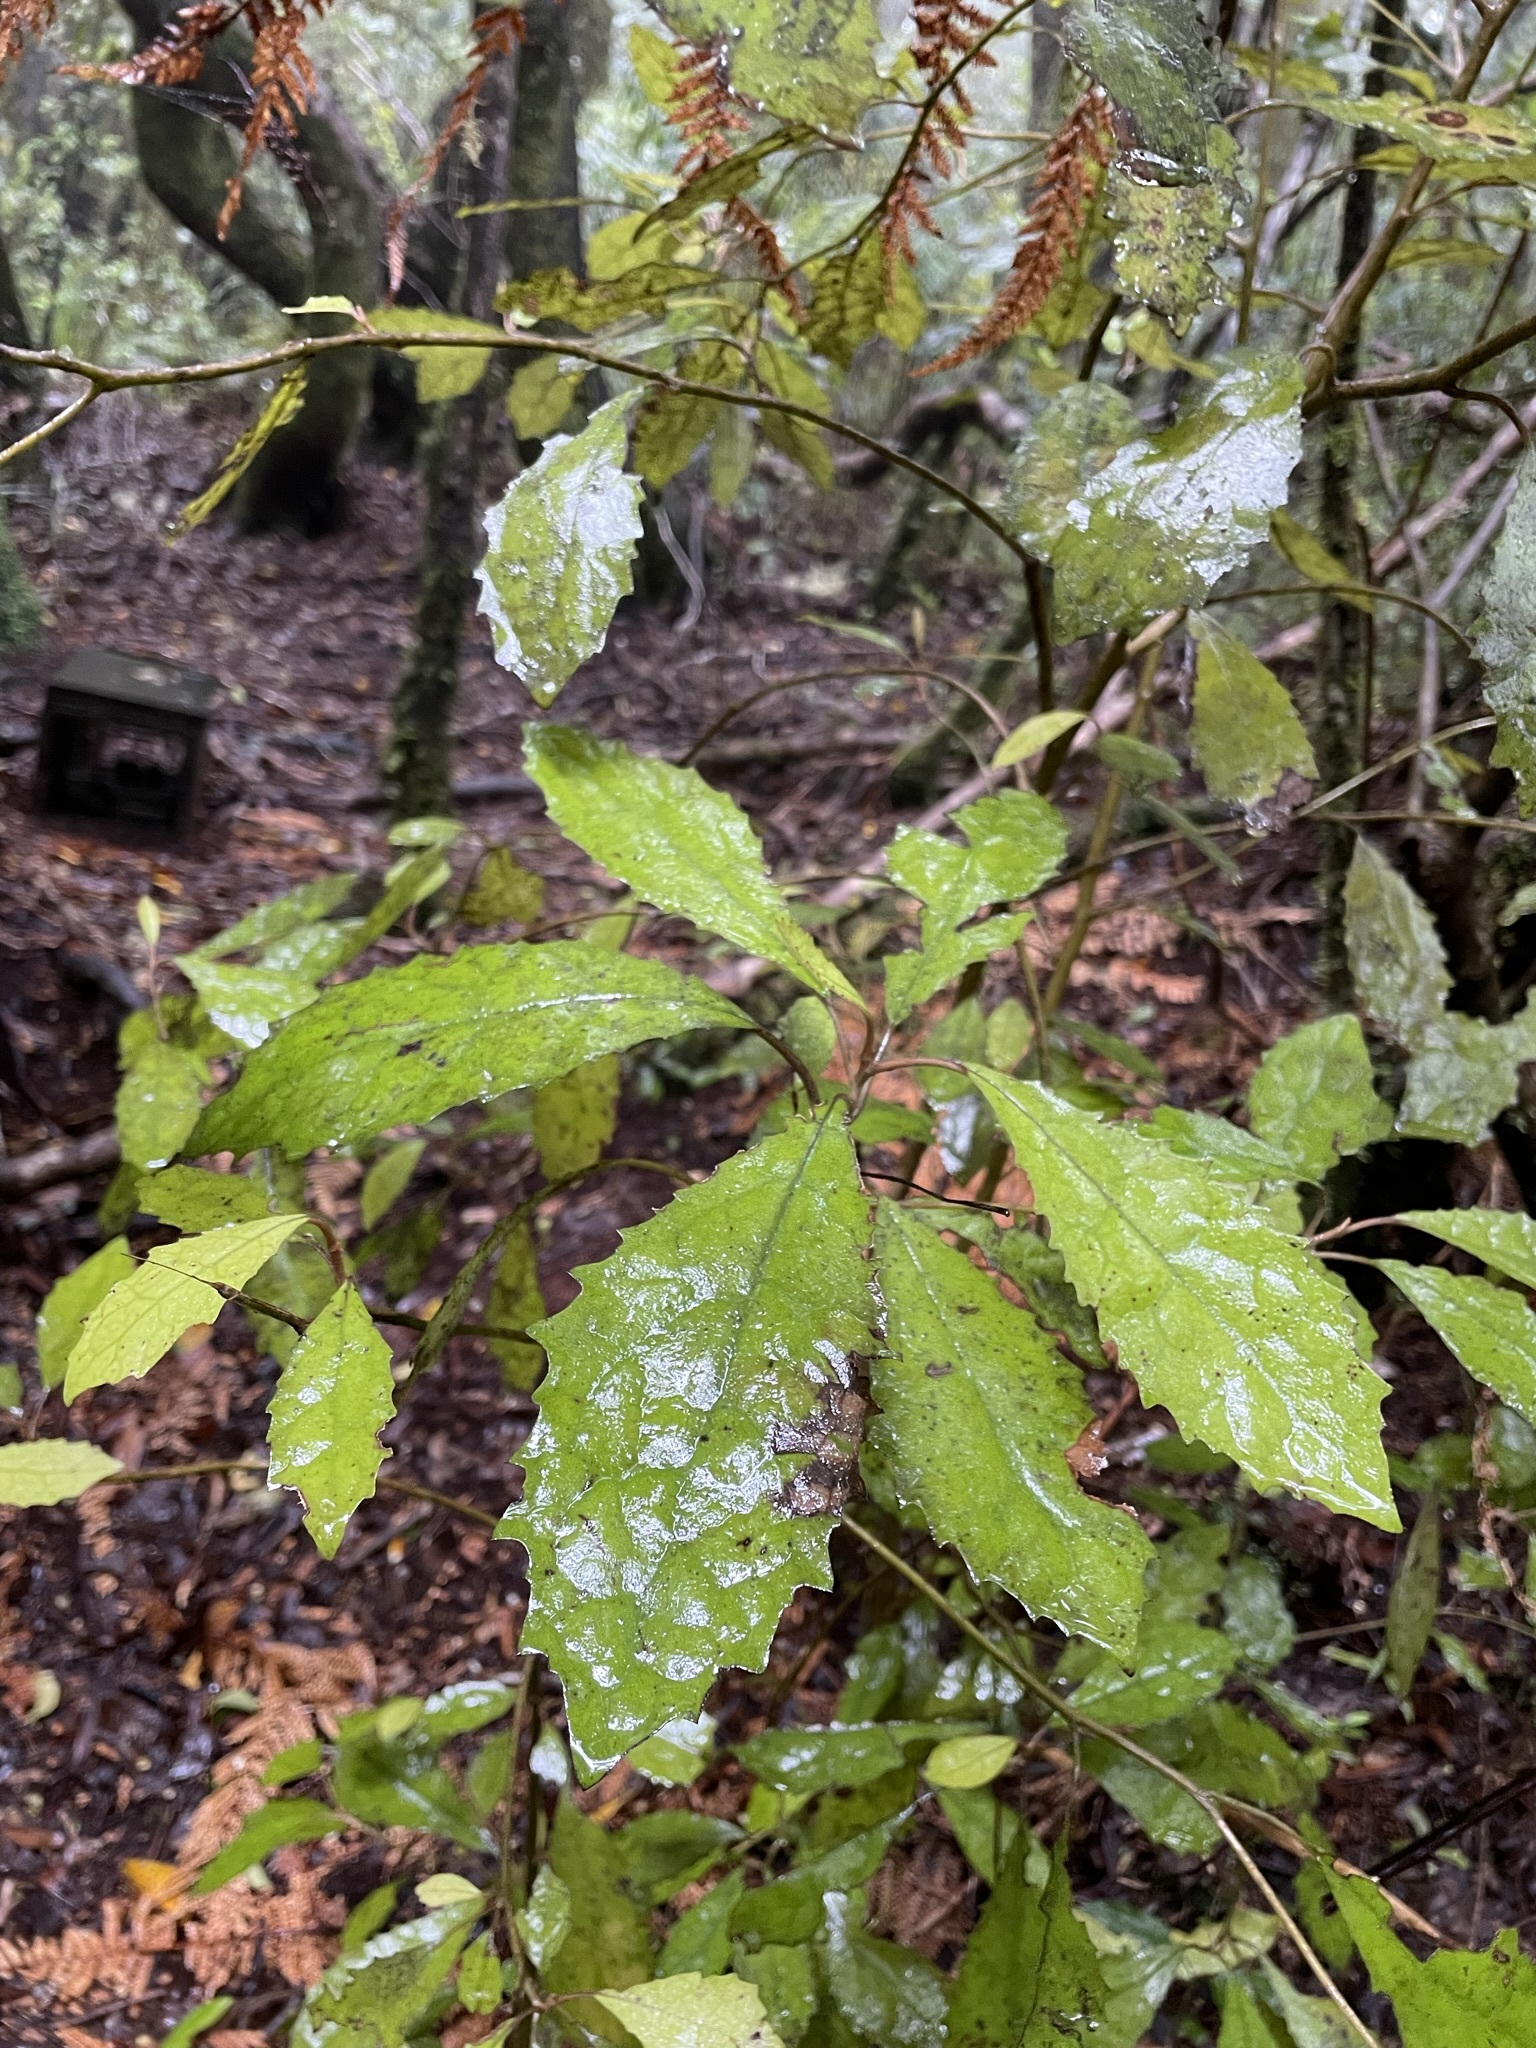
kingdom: Plantae
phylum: Tracheophyta
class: Magnoliopsida
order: Asterales
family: Asteraceae
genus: Olearia
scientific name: Olearia rani
